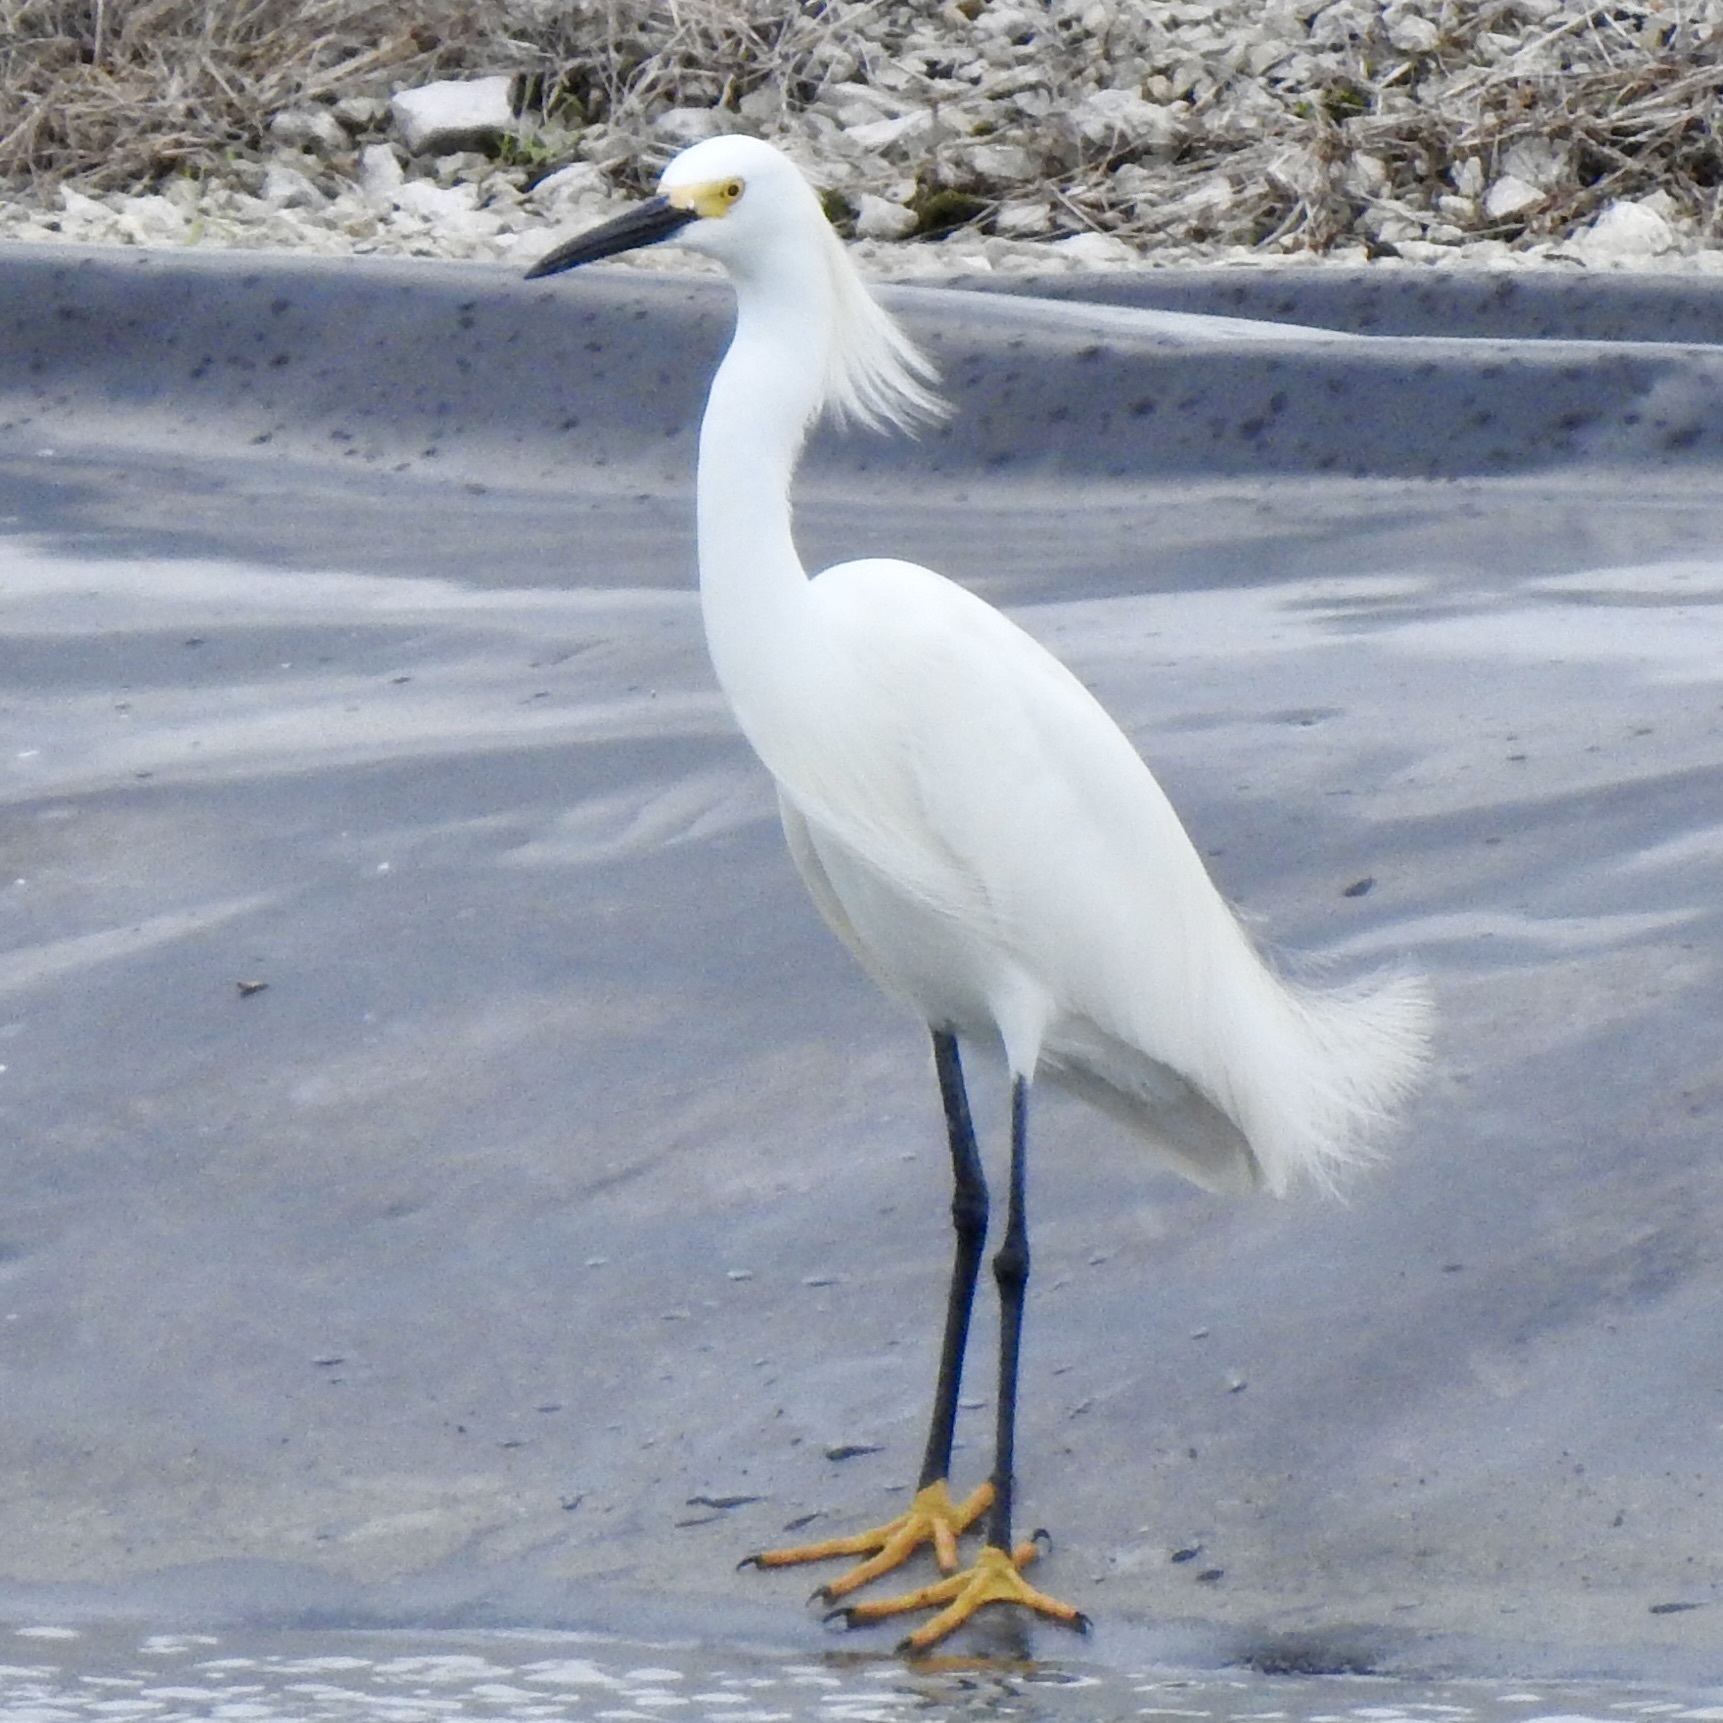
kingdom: Animalia
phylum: Chordata
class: Aves
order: Pelecaniformes
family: Ardeidae
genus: Egretta
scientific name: Egretta thula
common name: Snowy egret
